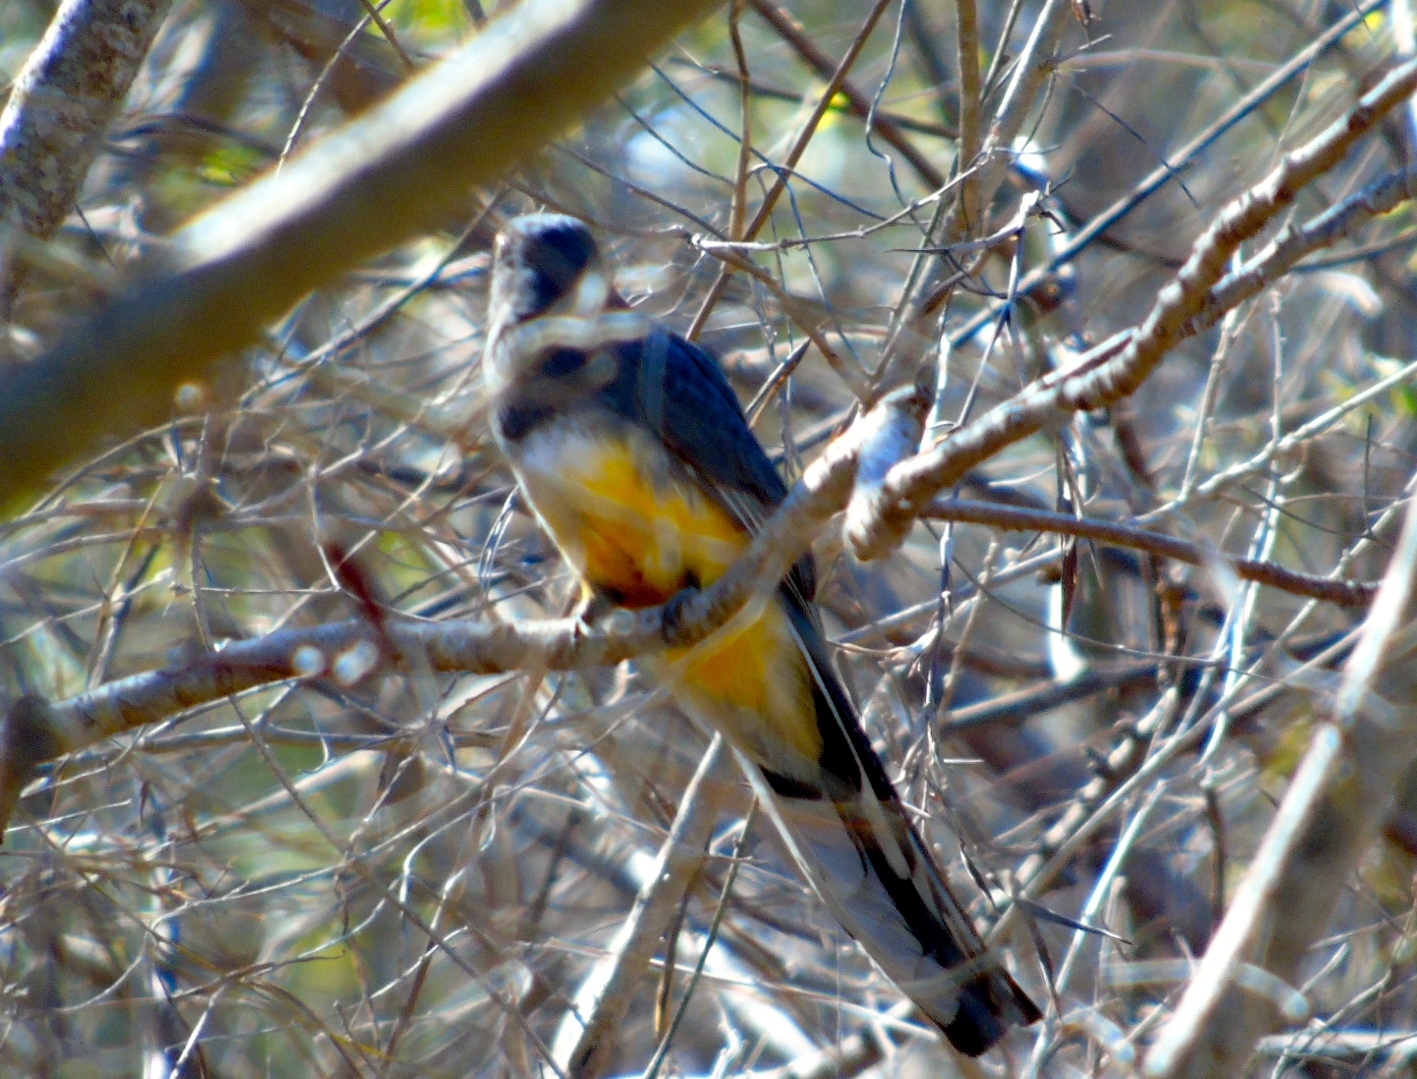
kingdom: Animalia
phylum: Chordata
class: Aves
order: Trogoniformes
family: Trogonidae
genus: Trogon
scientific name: Trogon citreolus
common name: Citreoline trogon
